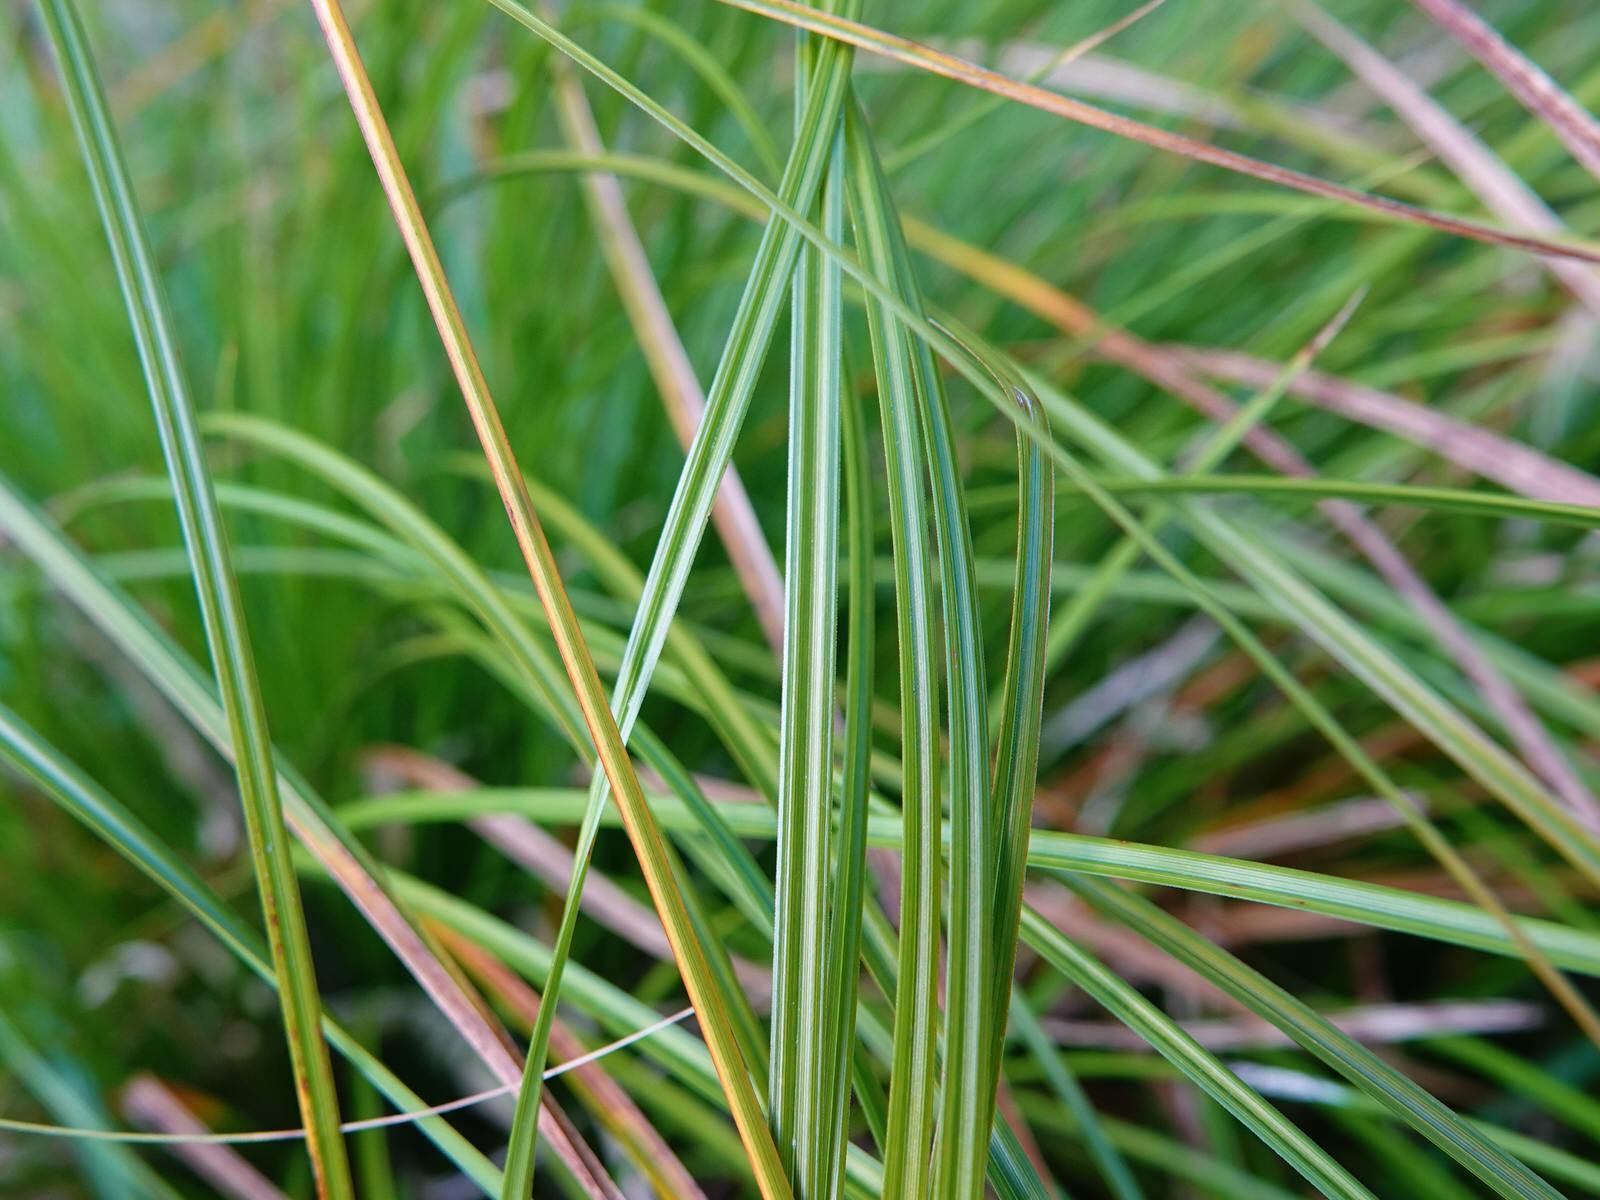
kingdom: Plantae
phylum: Tracheophyta
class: Liliopsida
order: Poales
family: Cyperaceae
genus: Carex
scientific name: Carex virgata
